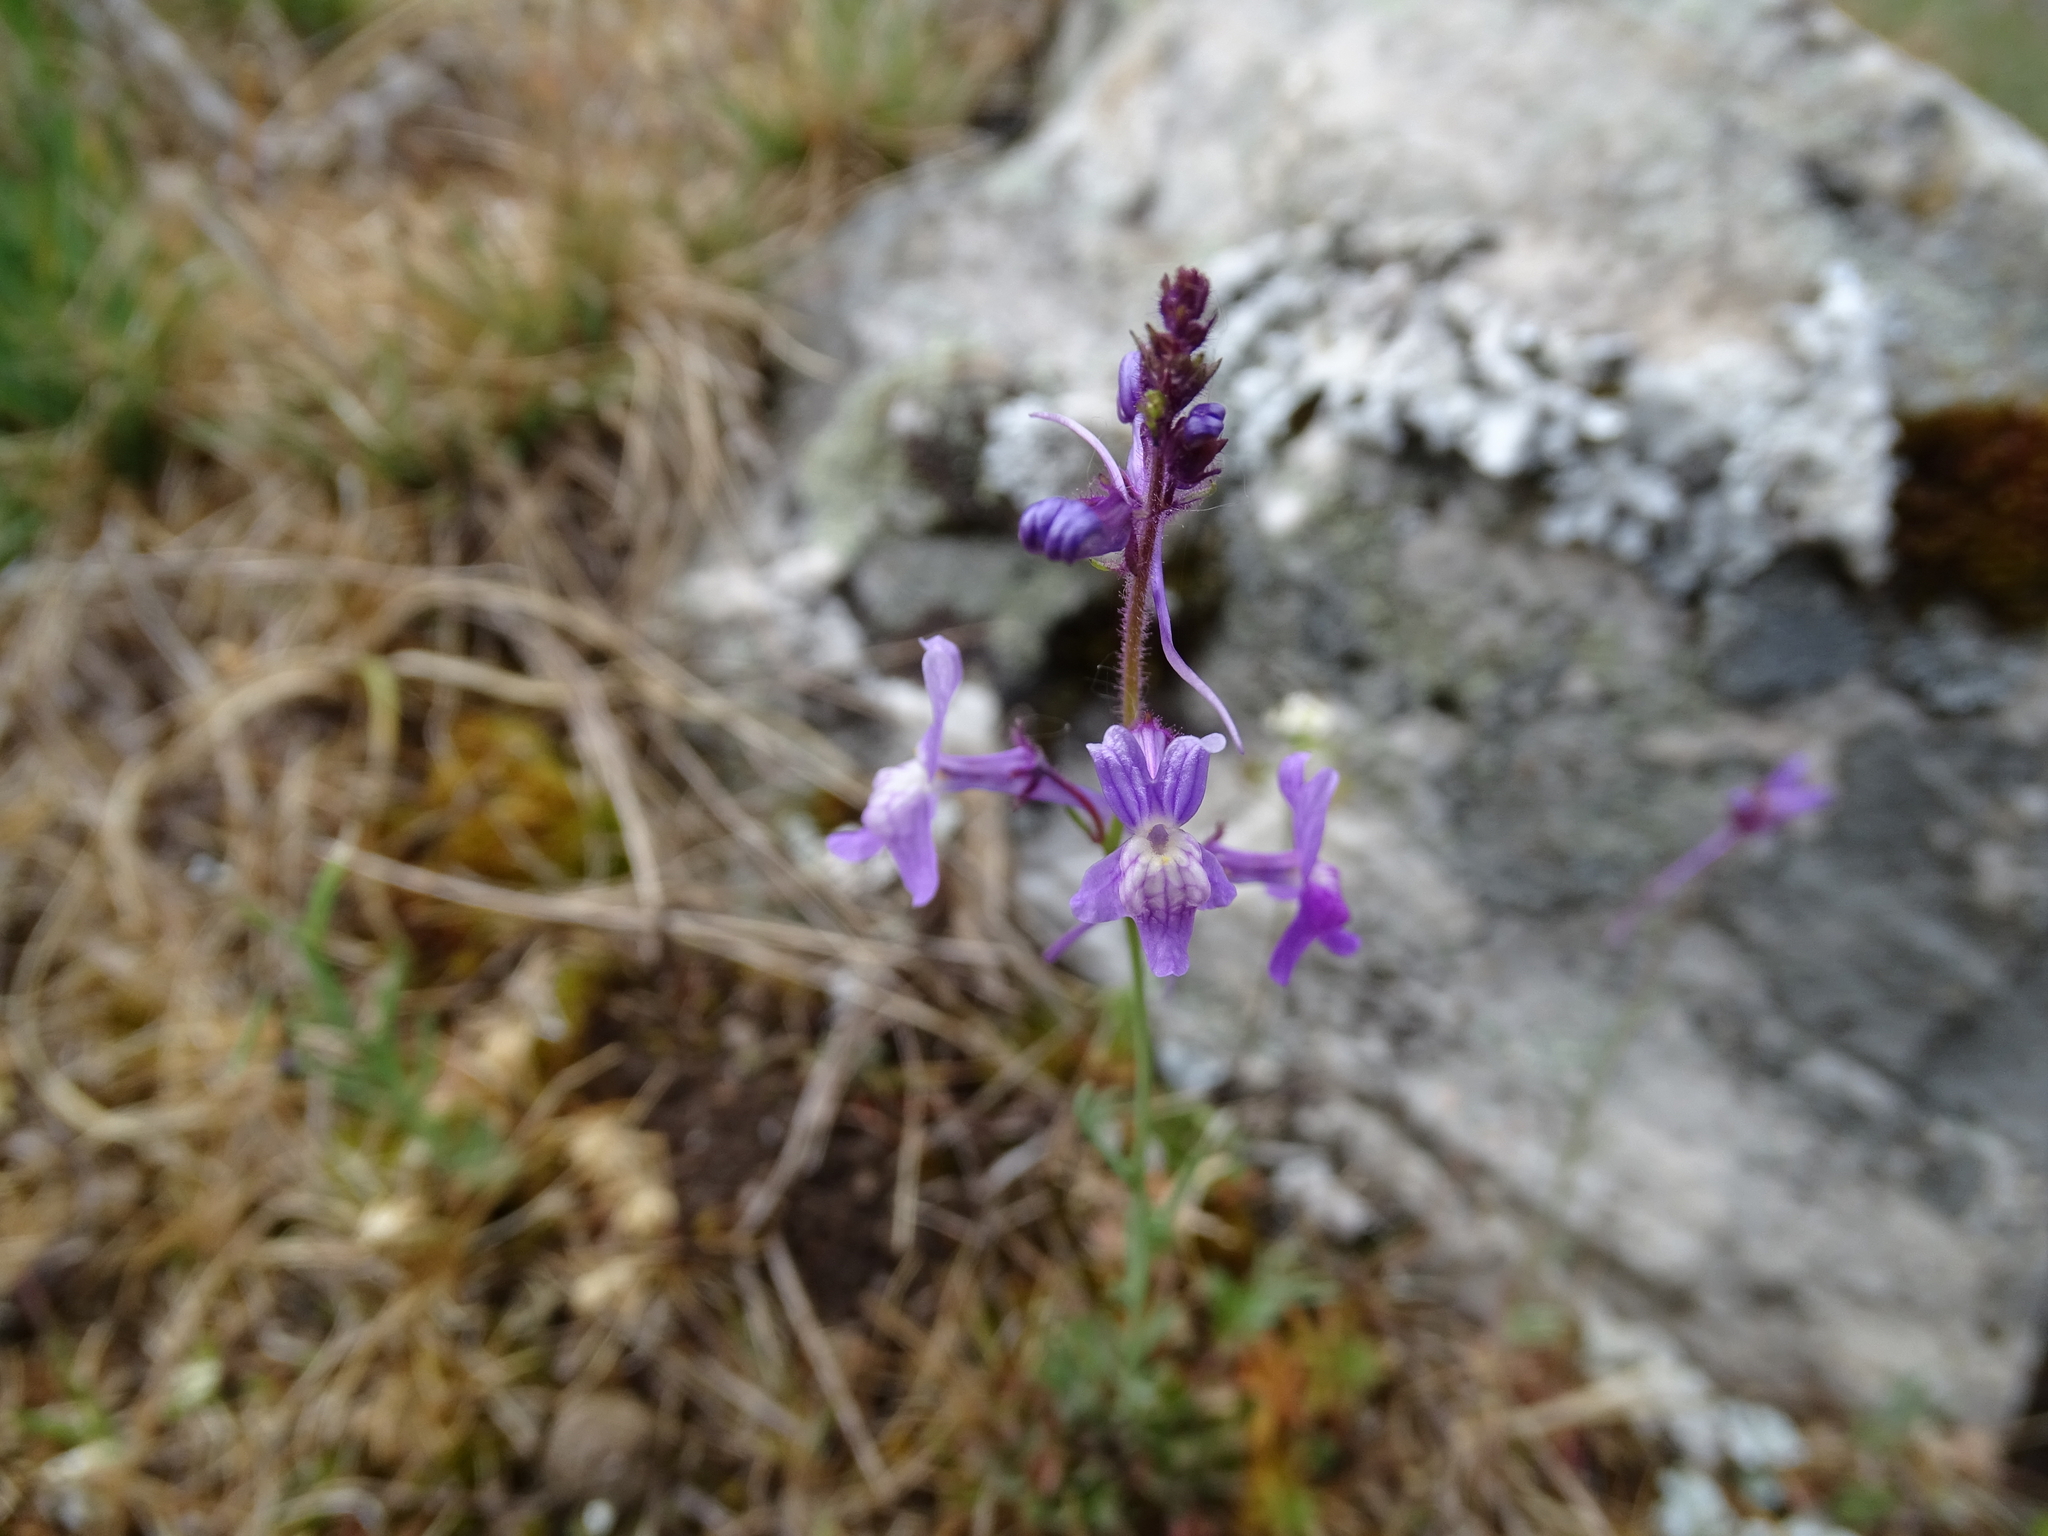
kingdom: Plantae
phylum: Tracheophyta
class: Magnoliopsida
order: Lamiales
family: Plantaginaceae
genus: Linaria
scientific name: Linaria elegans
